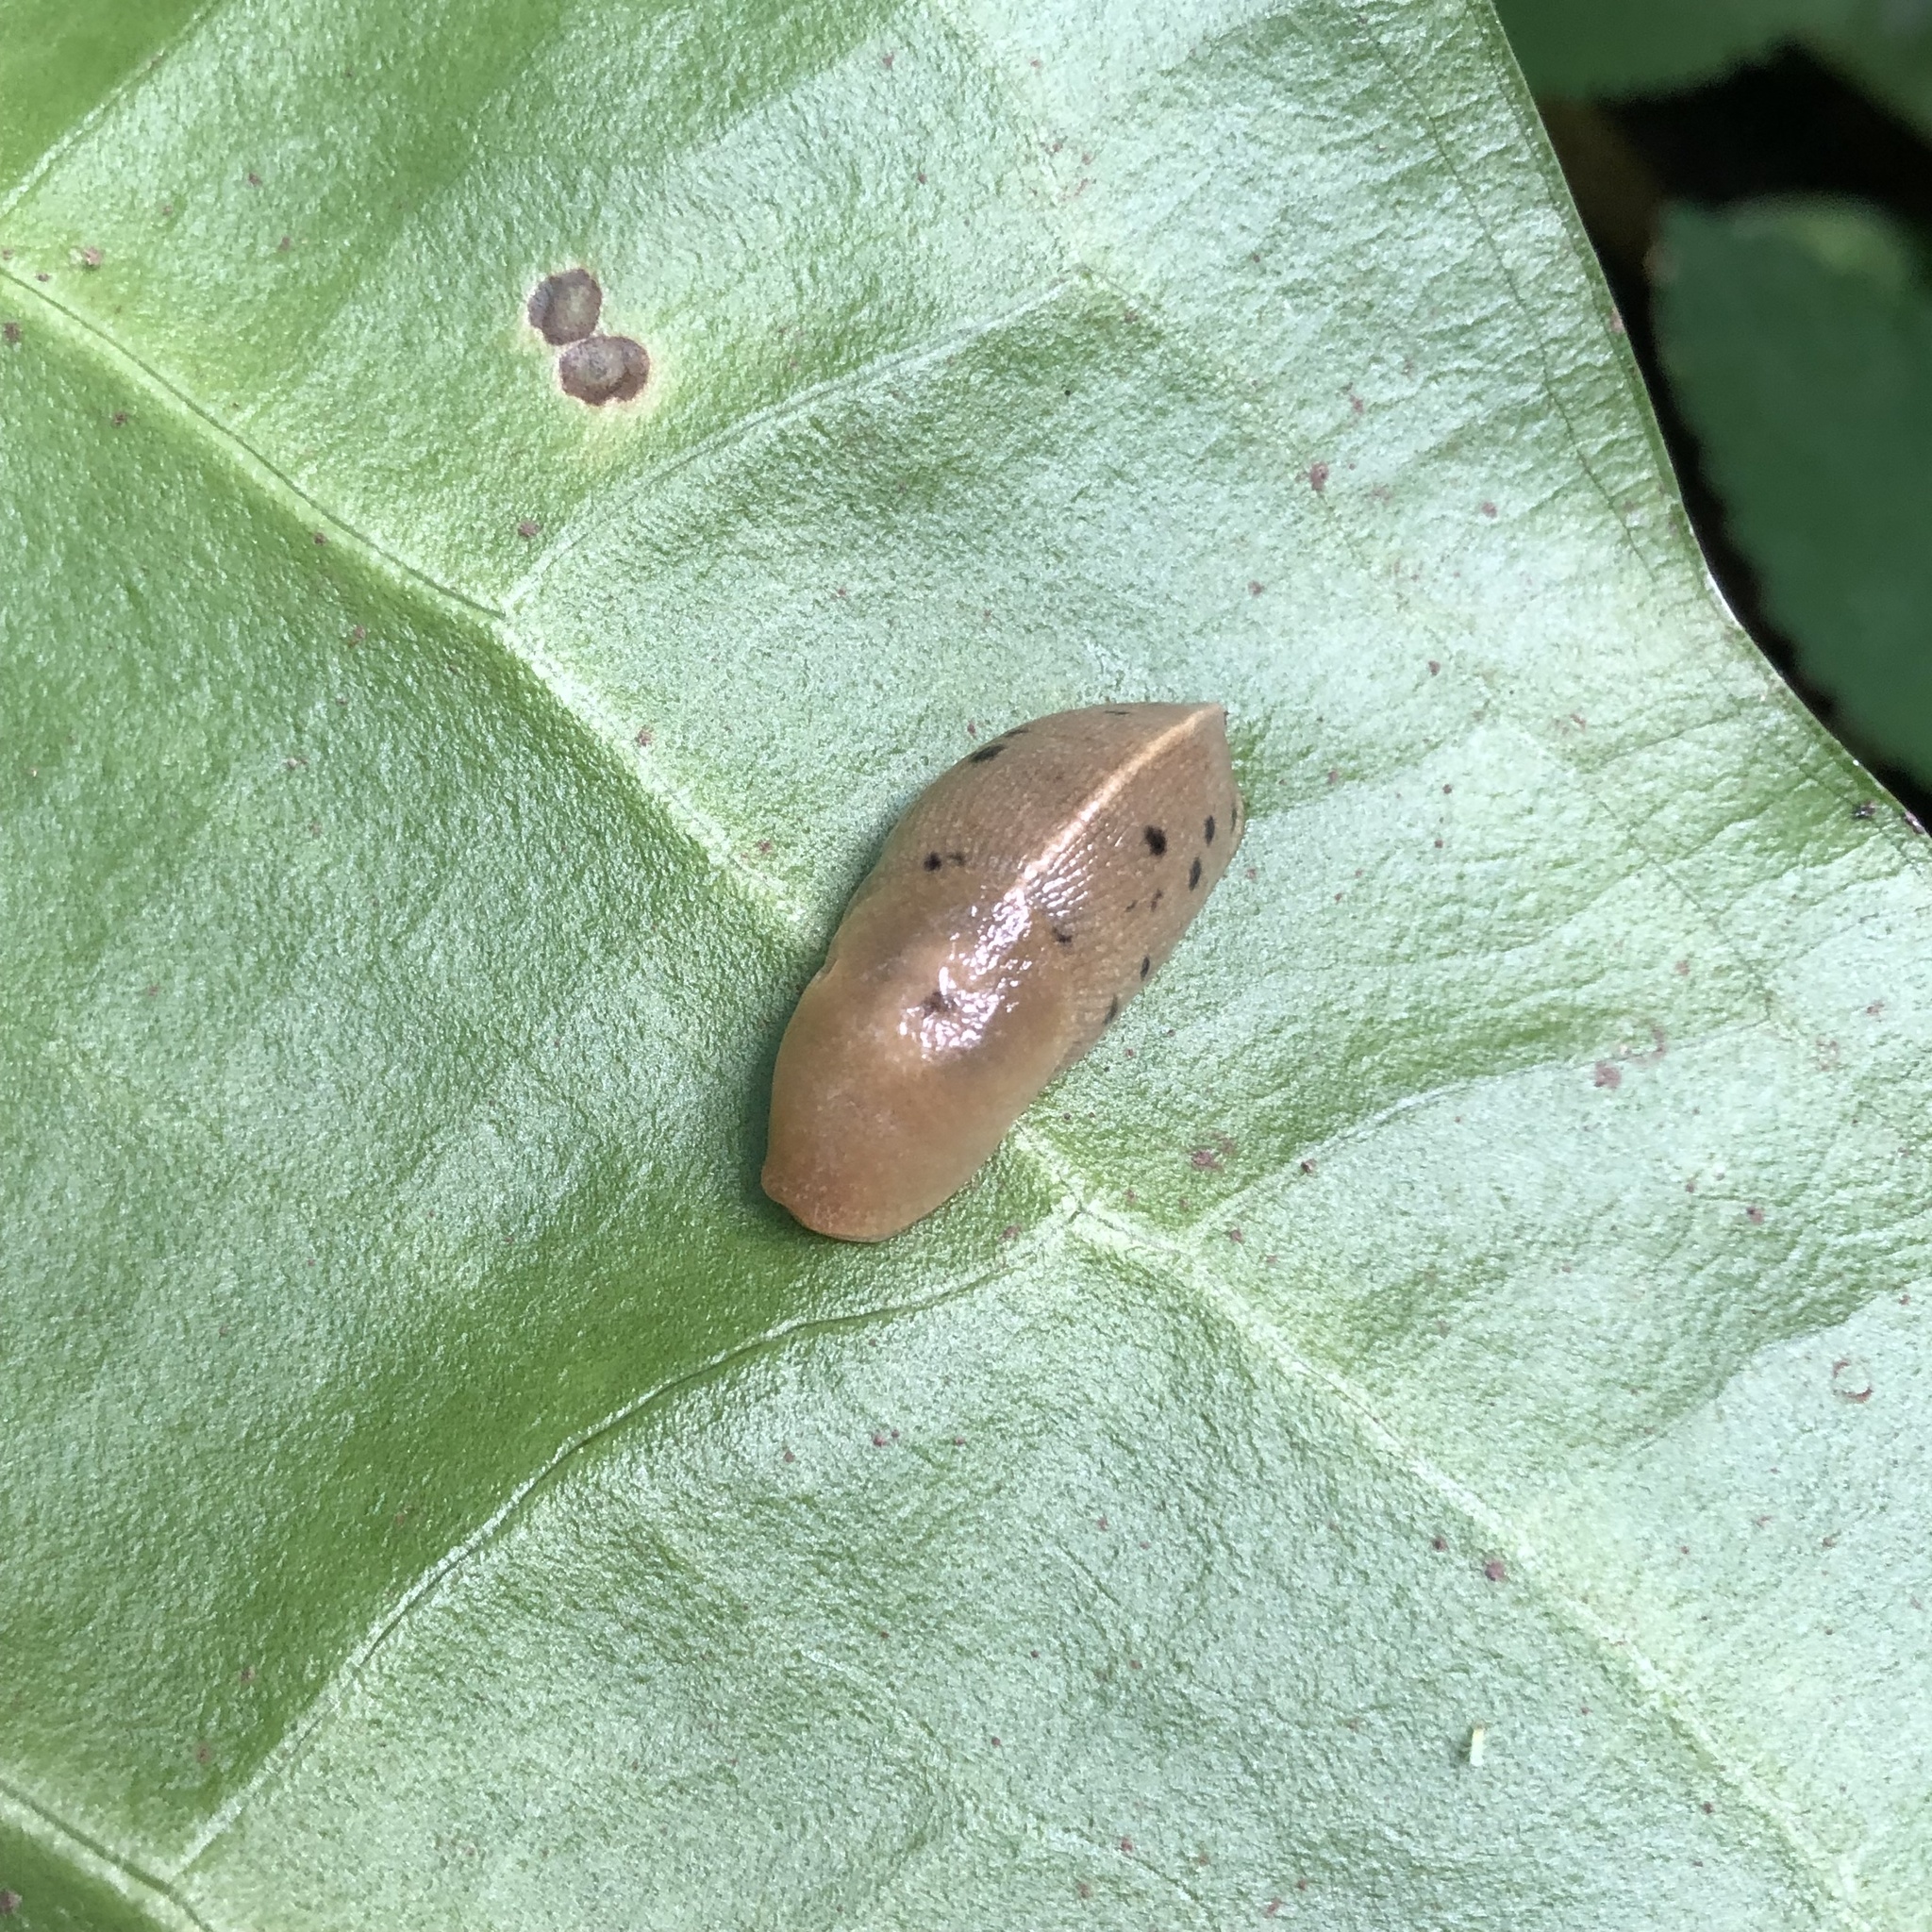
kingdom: Animalia
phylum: Mollusca
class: Gastropoda
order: Stylommatophora
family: Ariolimacidae
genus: Ariolimax
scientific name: Ariolimax columbianus
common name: Pacific banana slug
